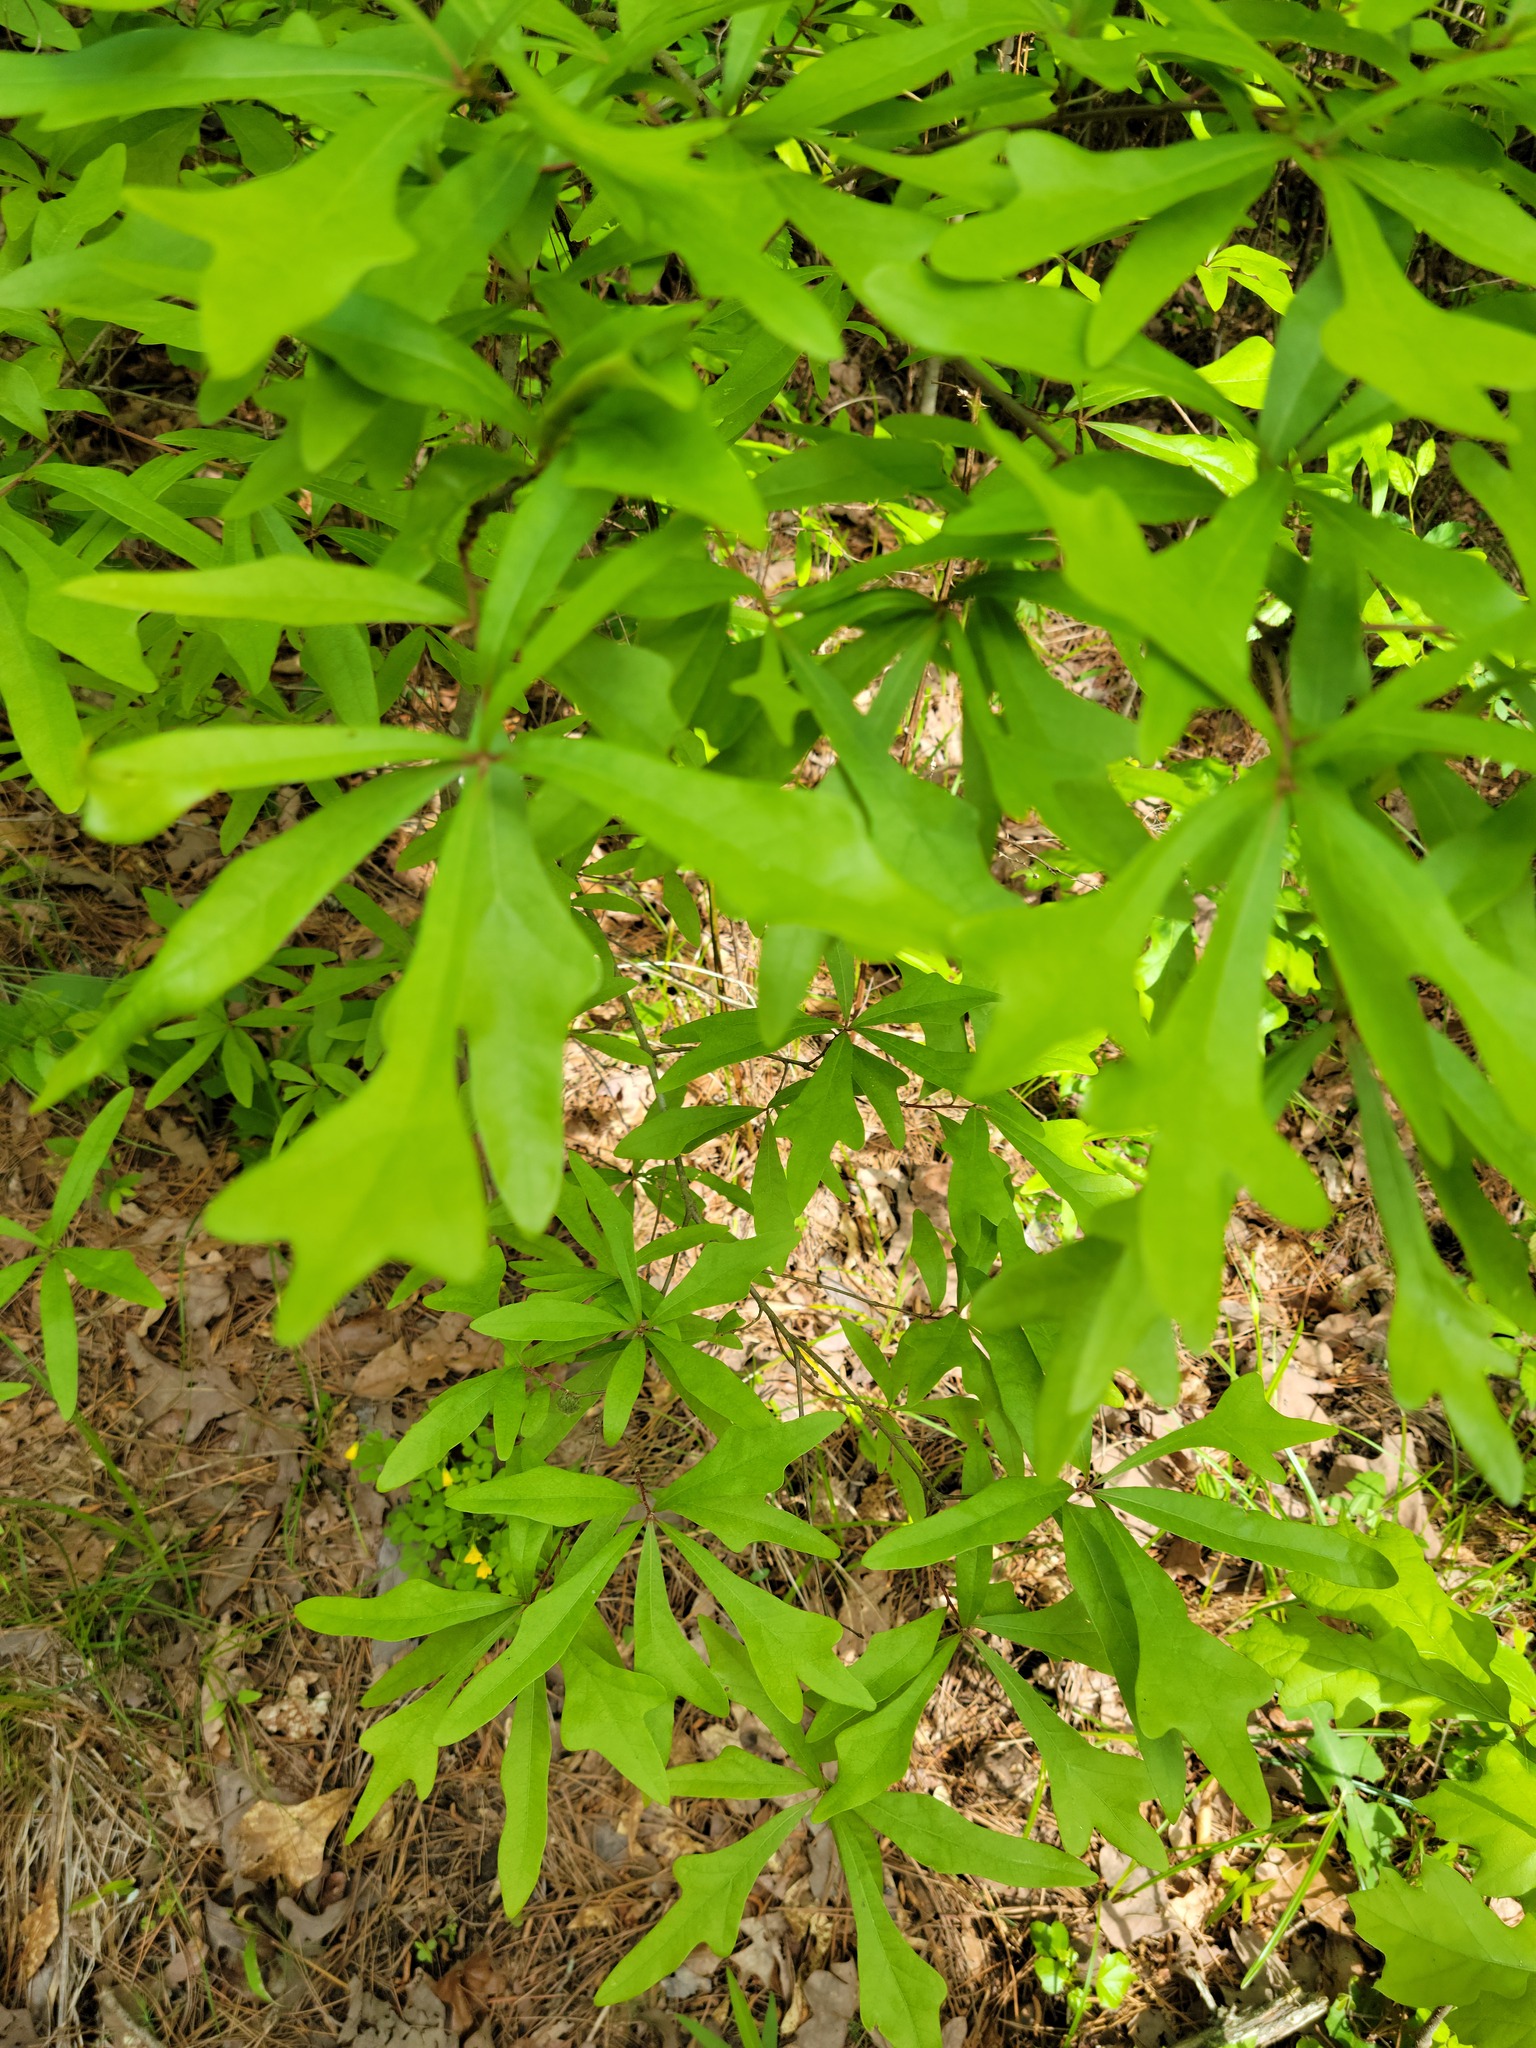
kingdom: Plantae
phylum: Tracheophyta
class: Magnoliopsida
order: Fagales
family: Fagaceae
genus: Quercus
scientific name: Quercus nigra
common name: Water oak
